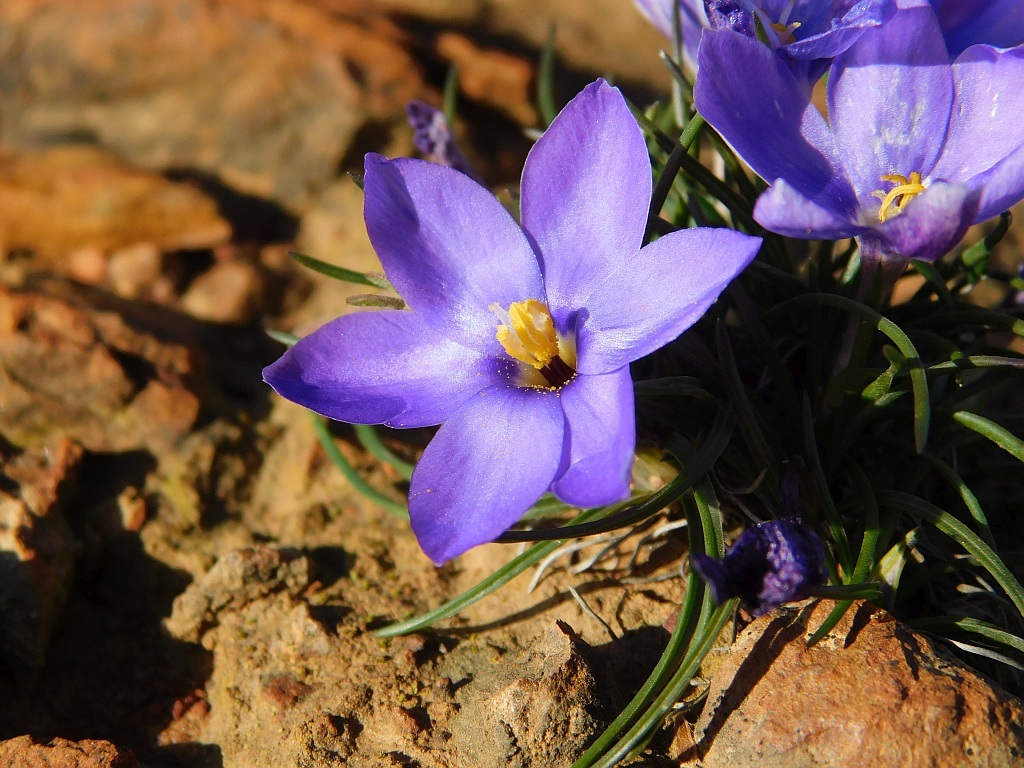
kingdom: Plantae
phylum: Tracheophyta
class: Liliopsida
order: Asparagales
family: Iridaceae
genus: Syringodea
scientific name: Syringodea longituba
